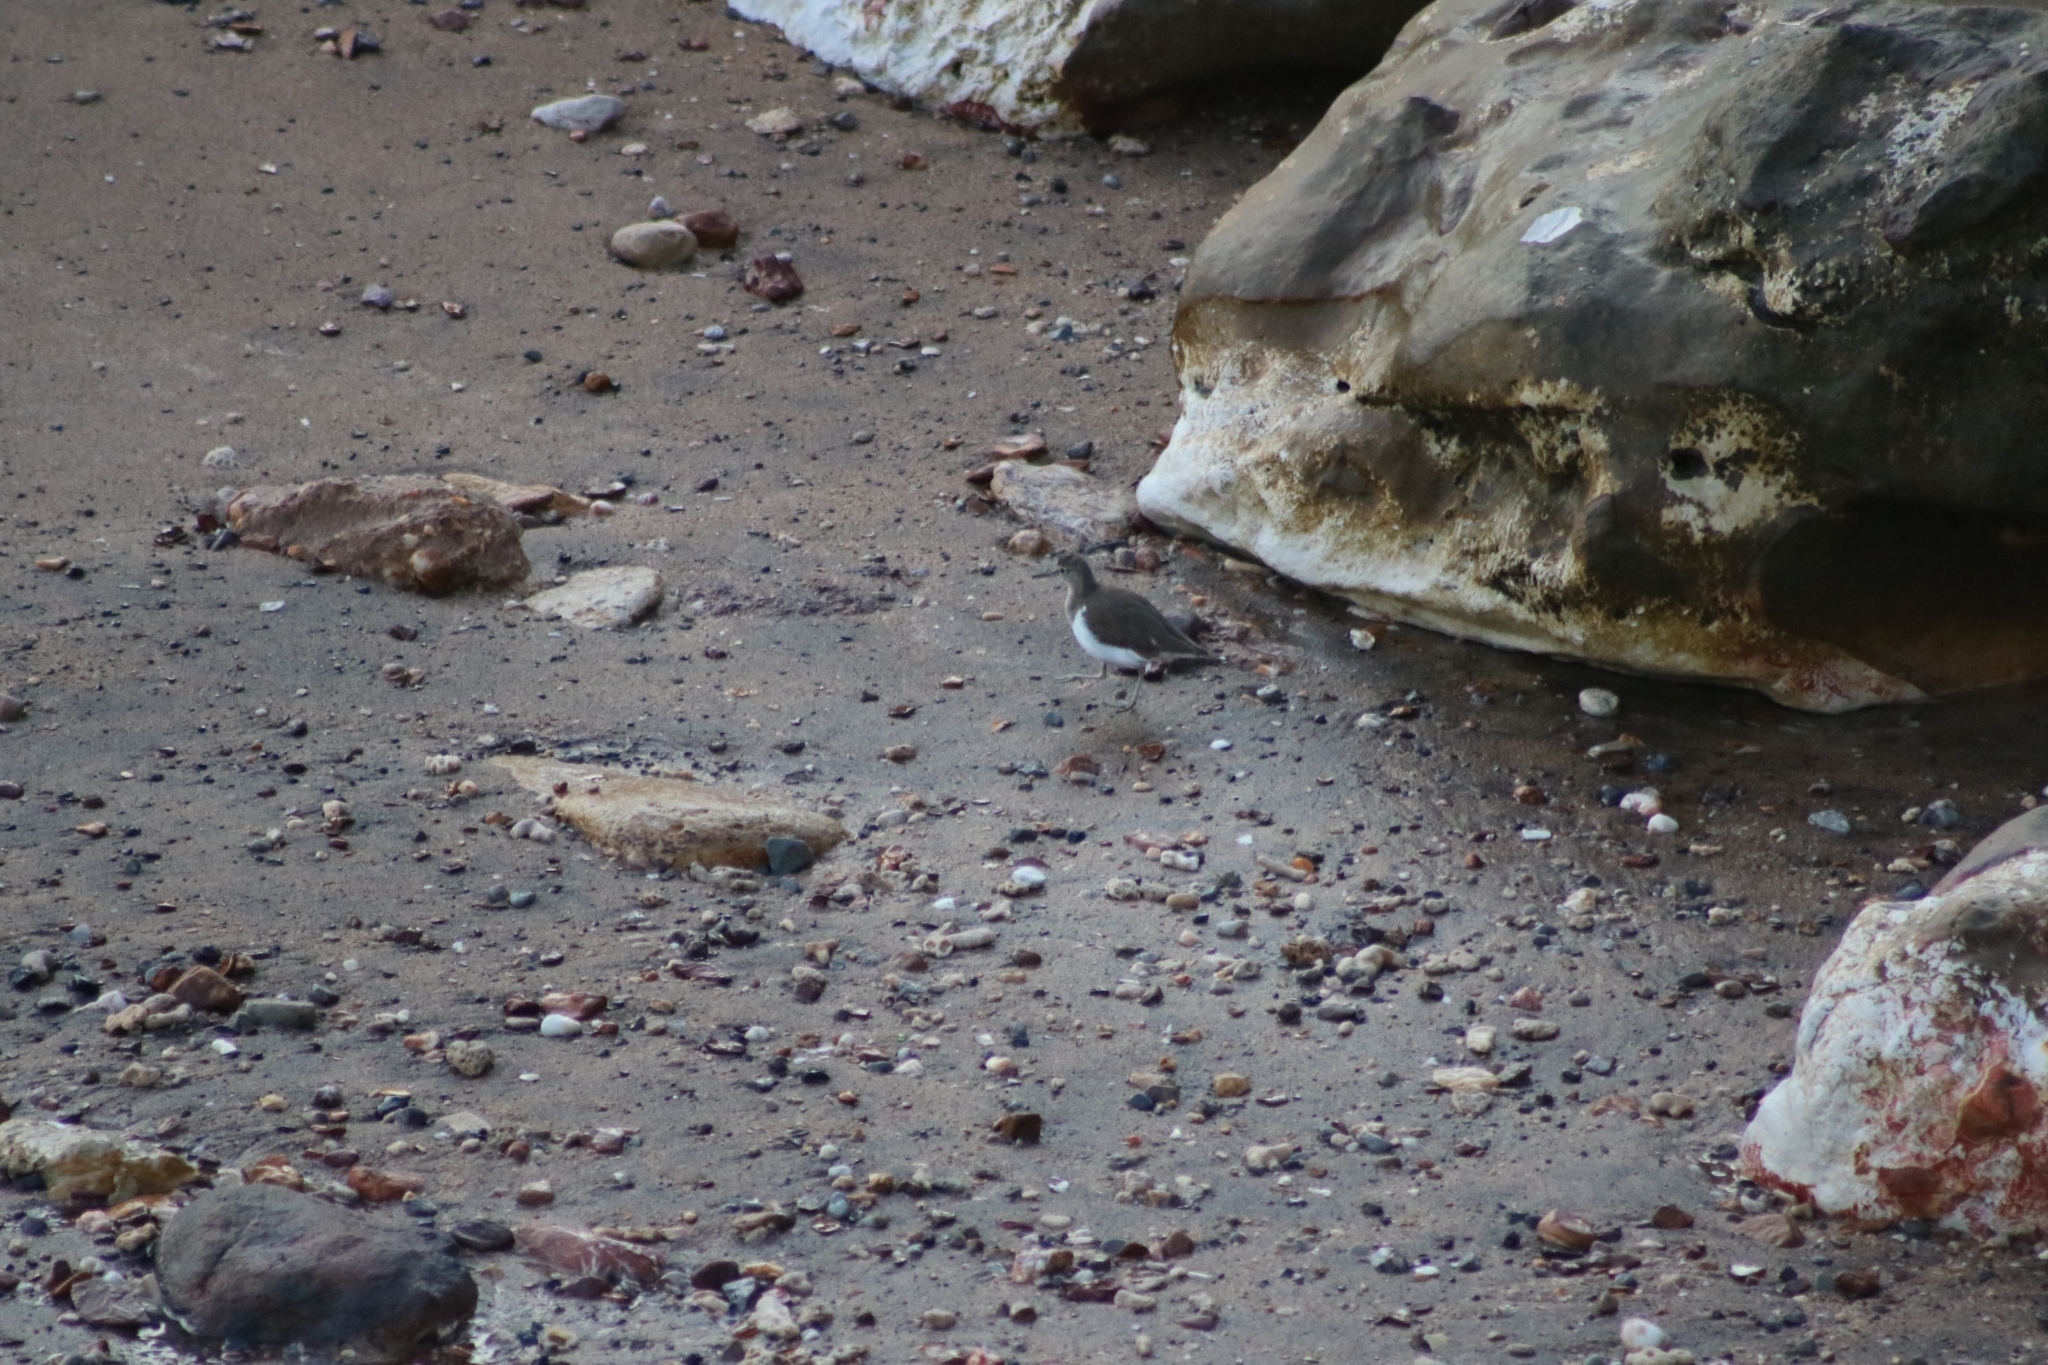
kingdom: Animalia
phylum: Chordata
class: Aves
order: Charadriiformes
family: Scolopacidae
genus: Actitis
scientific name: Actitis hypoleucos
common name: Common sandpiper
